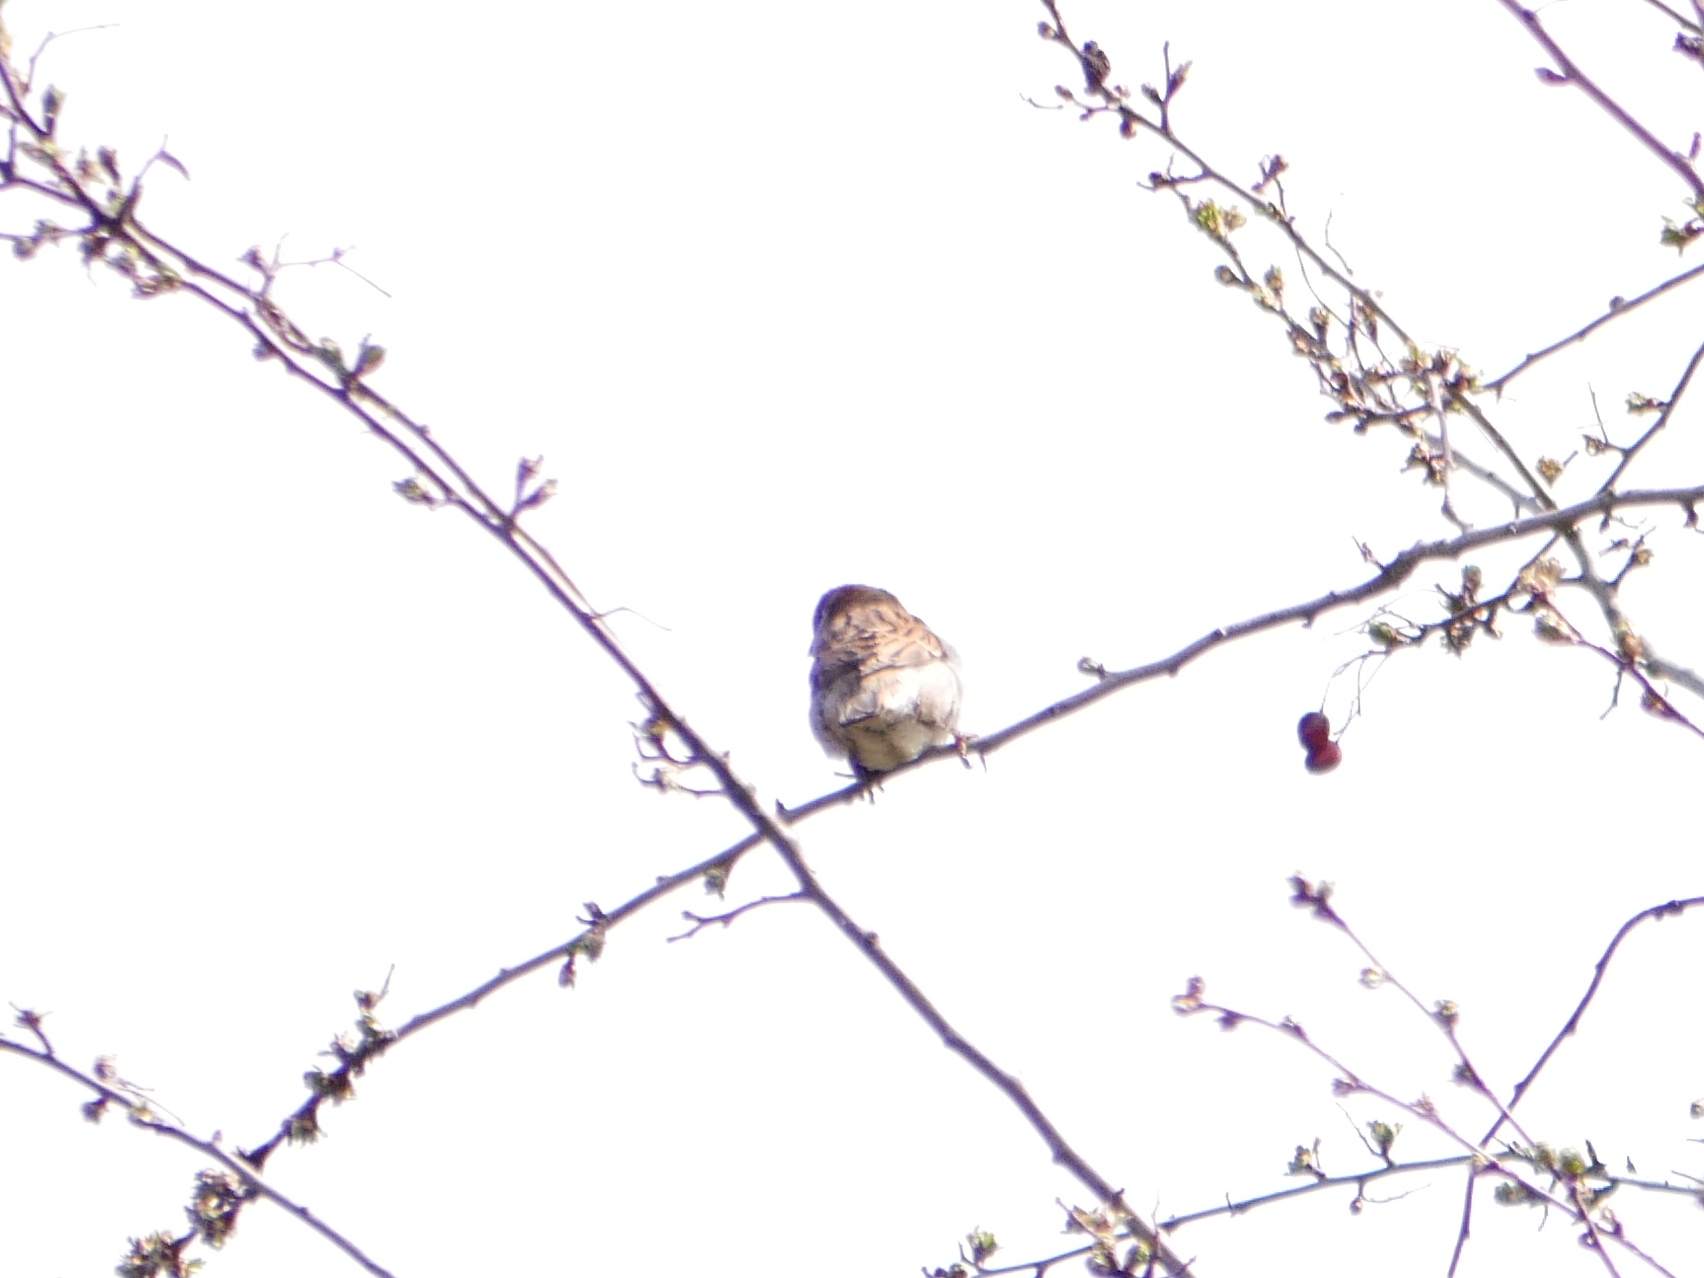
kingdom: Animalia
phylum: Chordata
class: Aves
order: Passeriformes
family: Passeridae
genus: Passer
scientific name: Passer domesticus
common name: House sparrow
